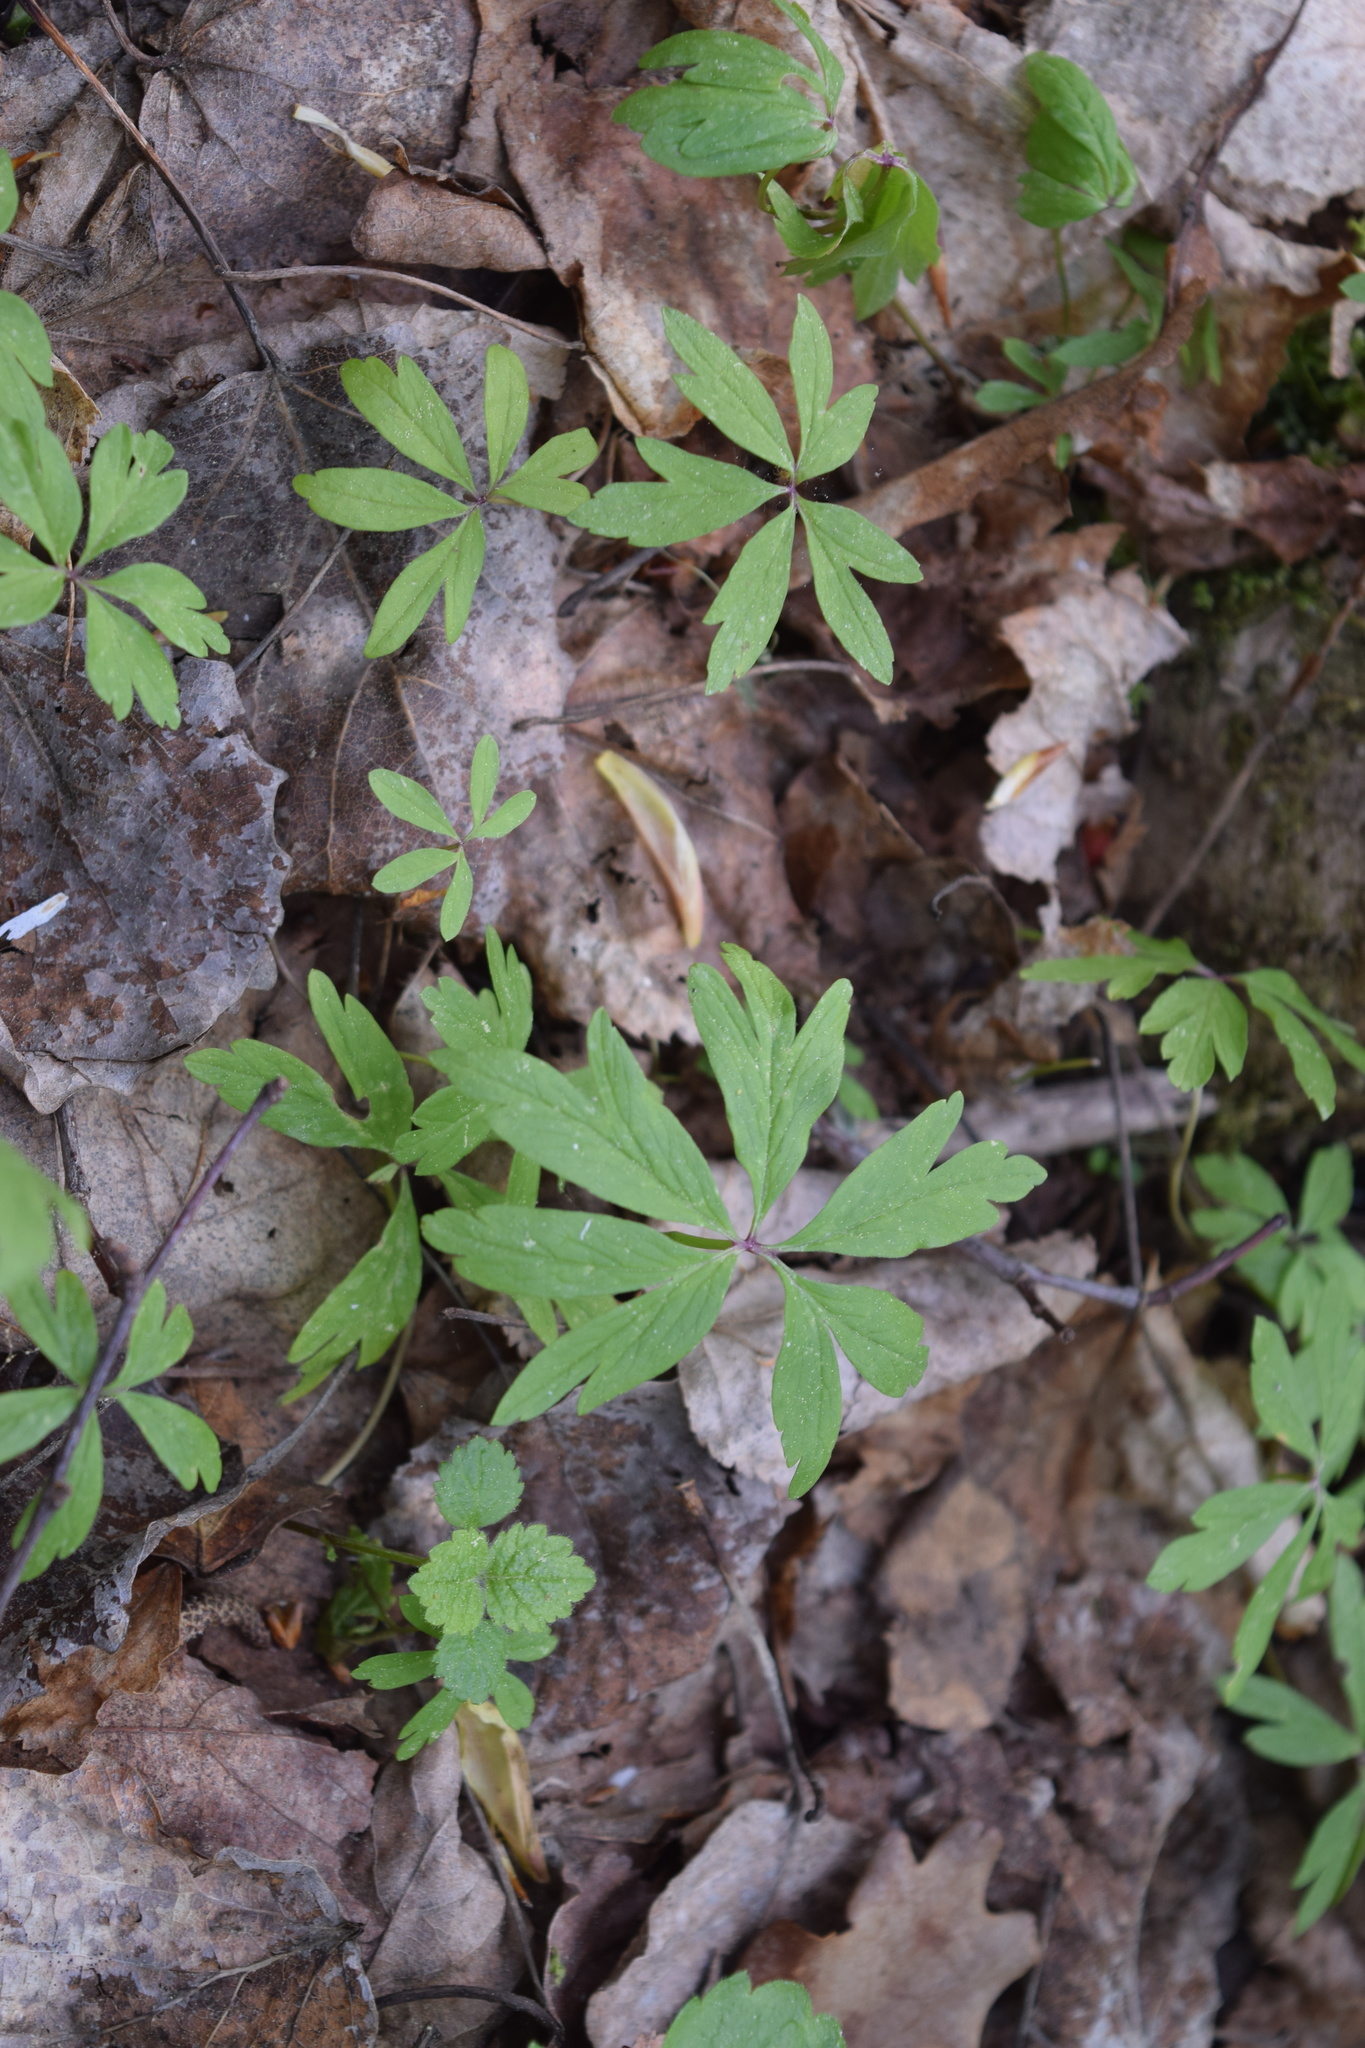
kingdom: Plantae
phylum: Tracheophyta
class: Magnoliopsida
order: Ranunculales
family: Ranunculaceae
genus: Anemone
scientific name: Anemone ranunculoides
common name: Yellow anemone
